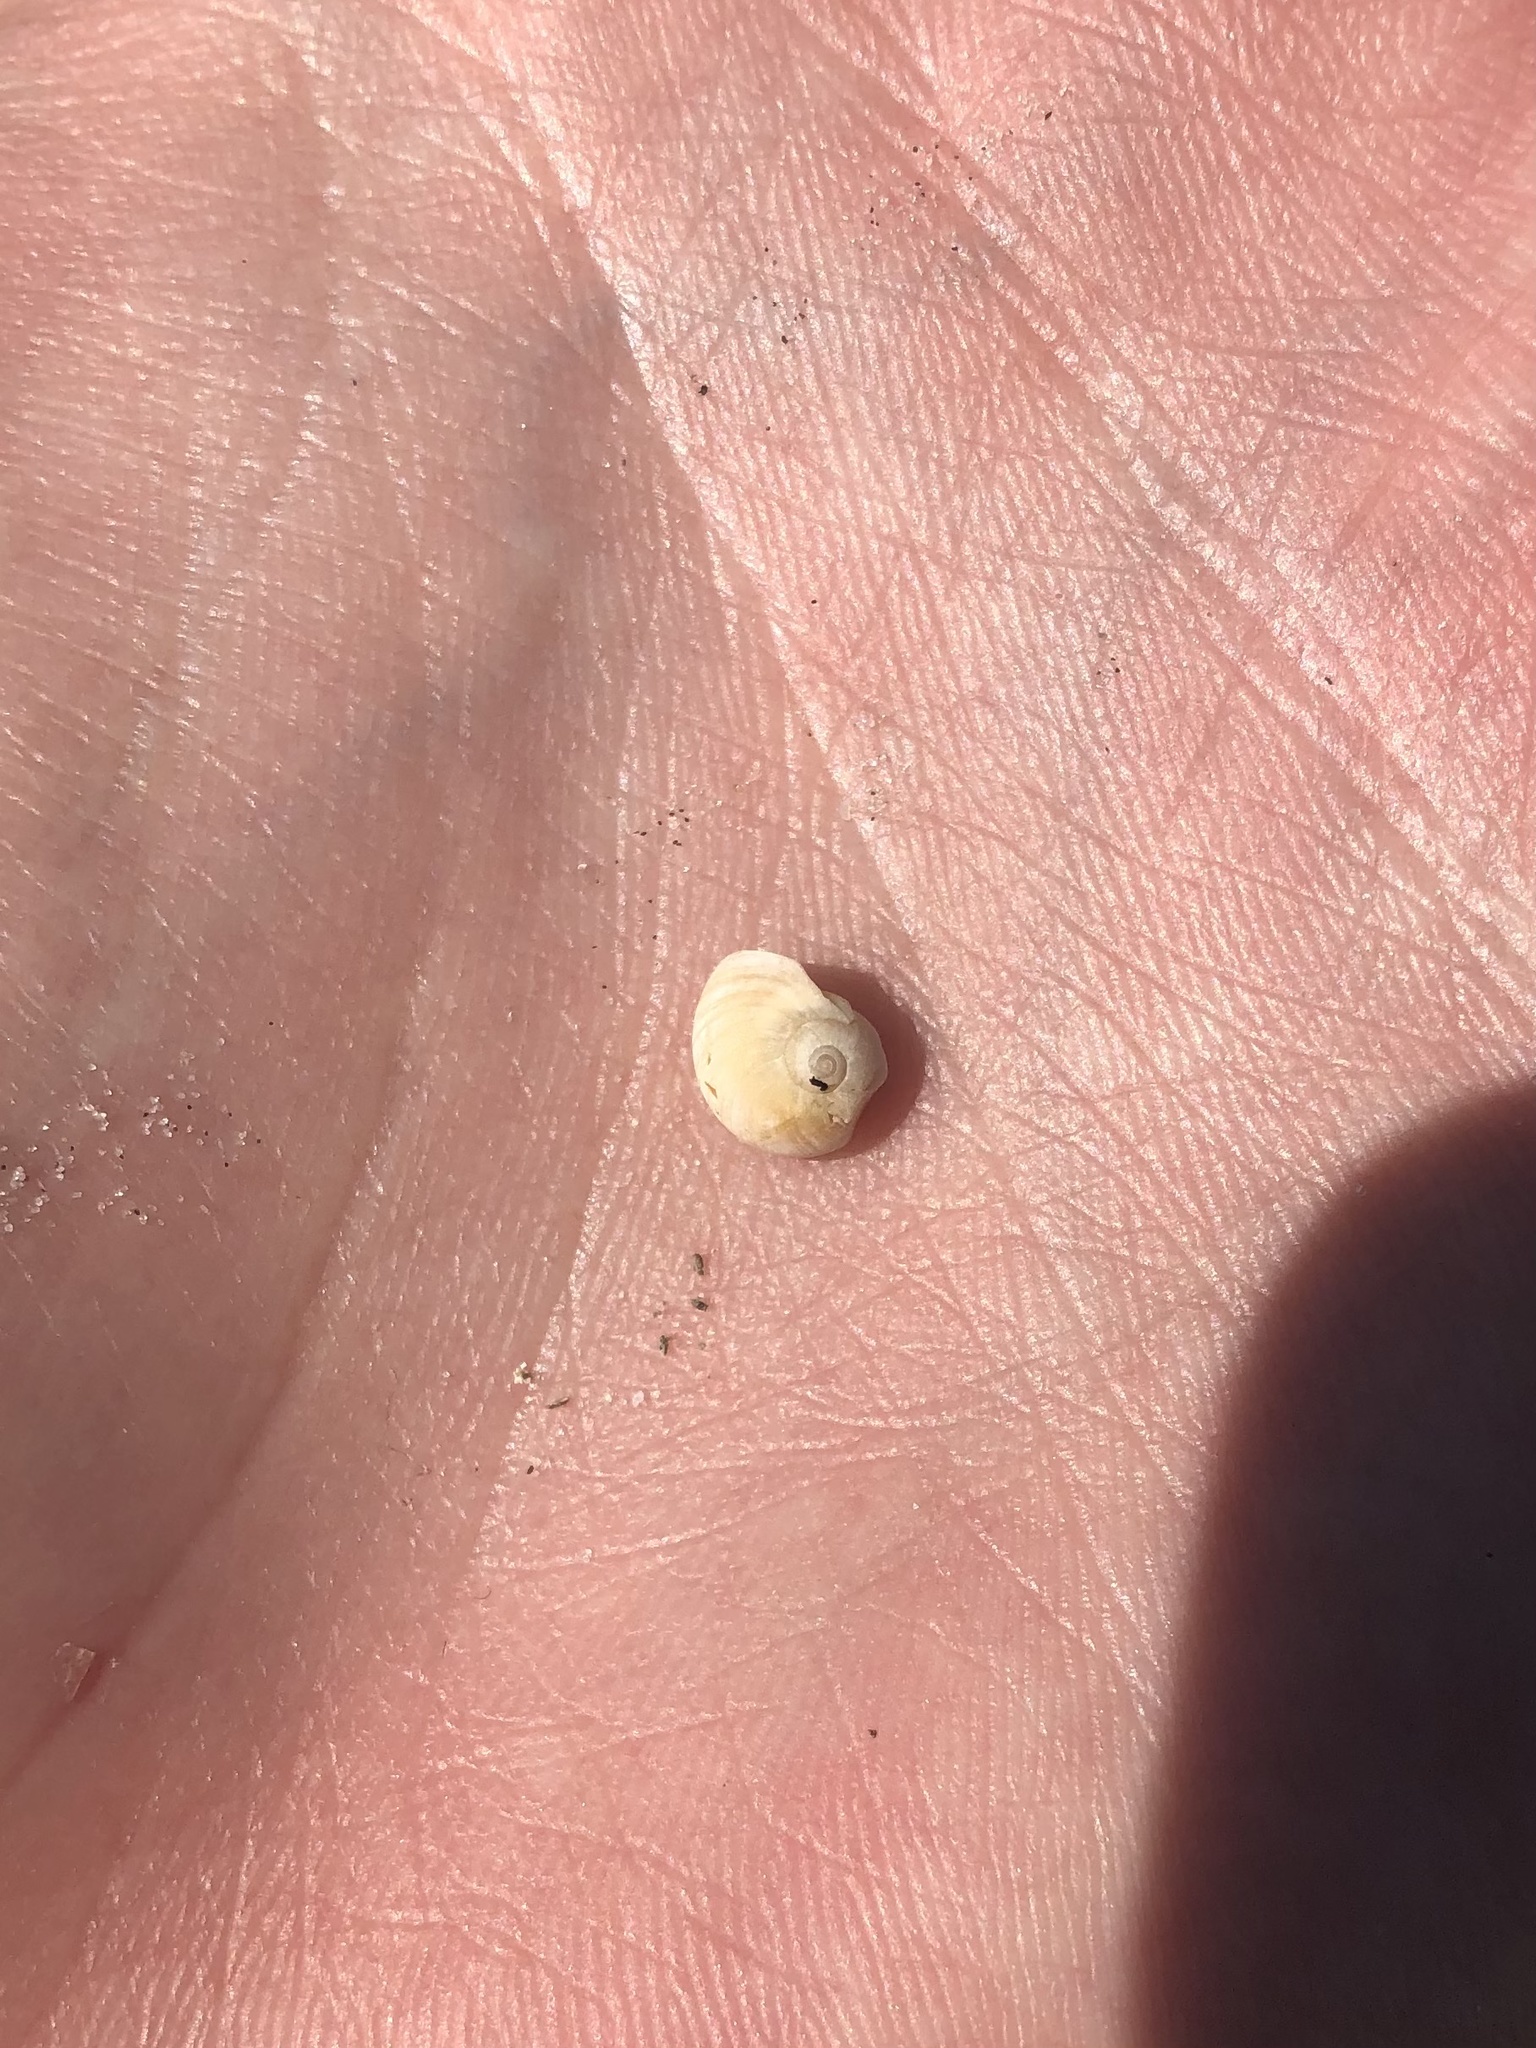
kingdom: Animalia
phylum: Mollusca
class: Gastropoda
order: Littorinimorpha
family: Naticidae
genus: Neverita
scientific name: Neverita duplicata
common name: Lobed moonsnail
